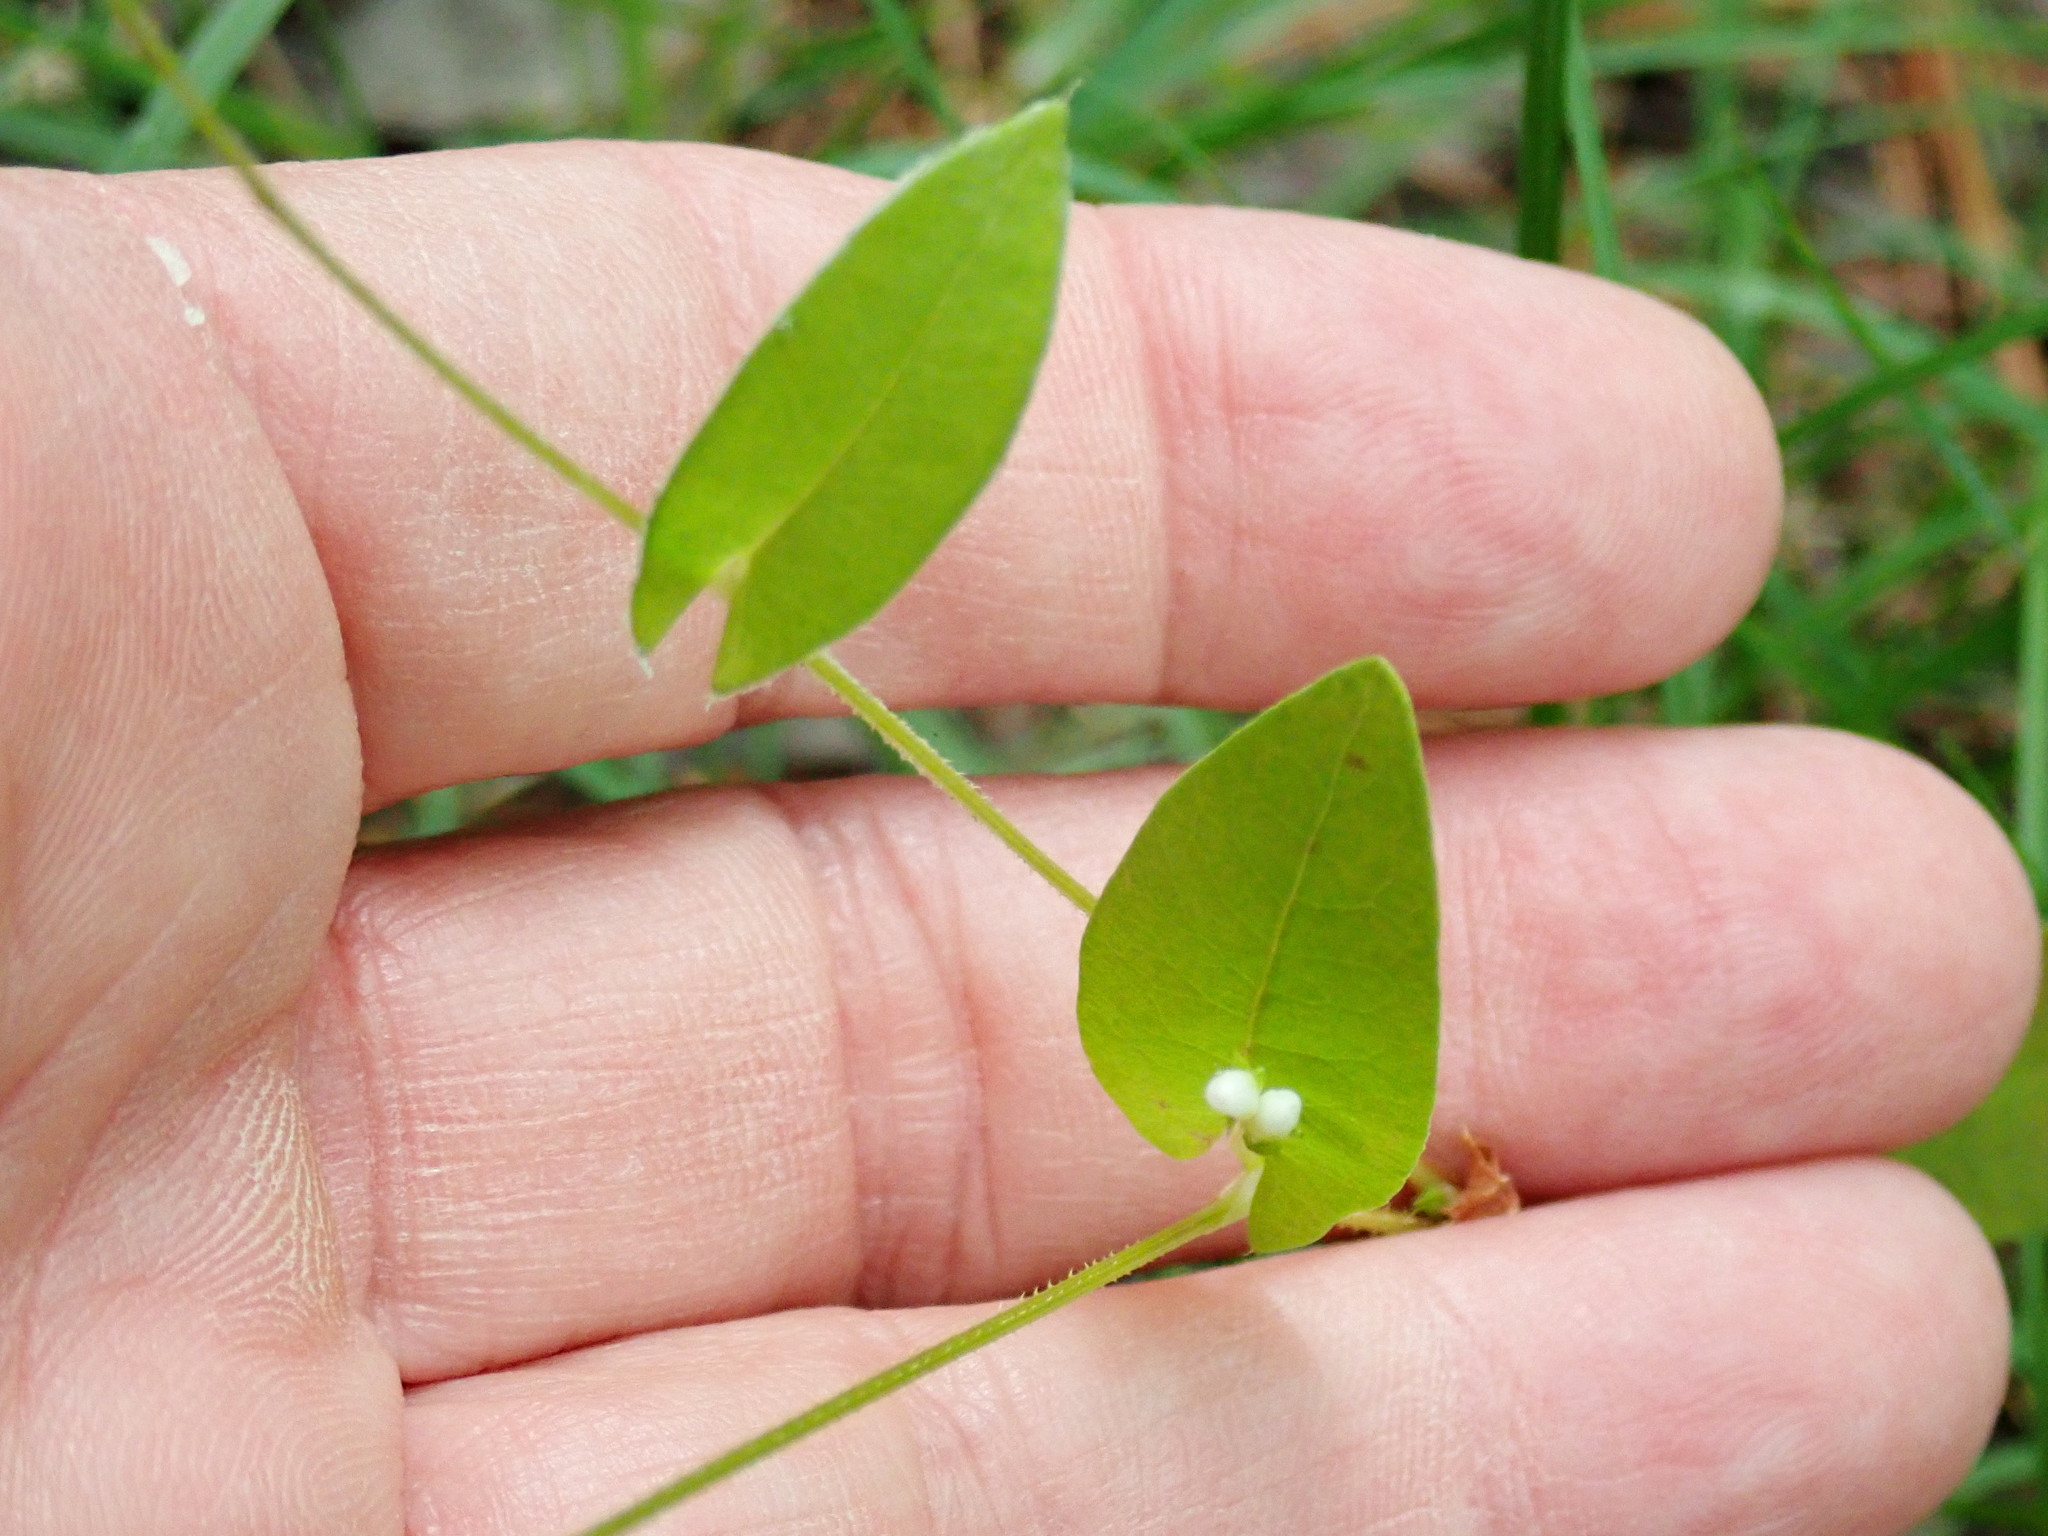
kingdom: Plantae
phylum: Tracheophyta
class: Magnoliopsida
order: Caryophyllales
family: Polygonaceae
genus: Persicaria
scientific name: Persicaria sagittata
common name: American tearthumb
